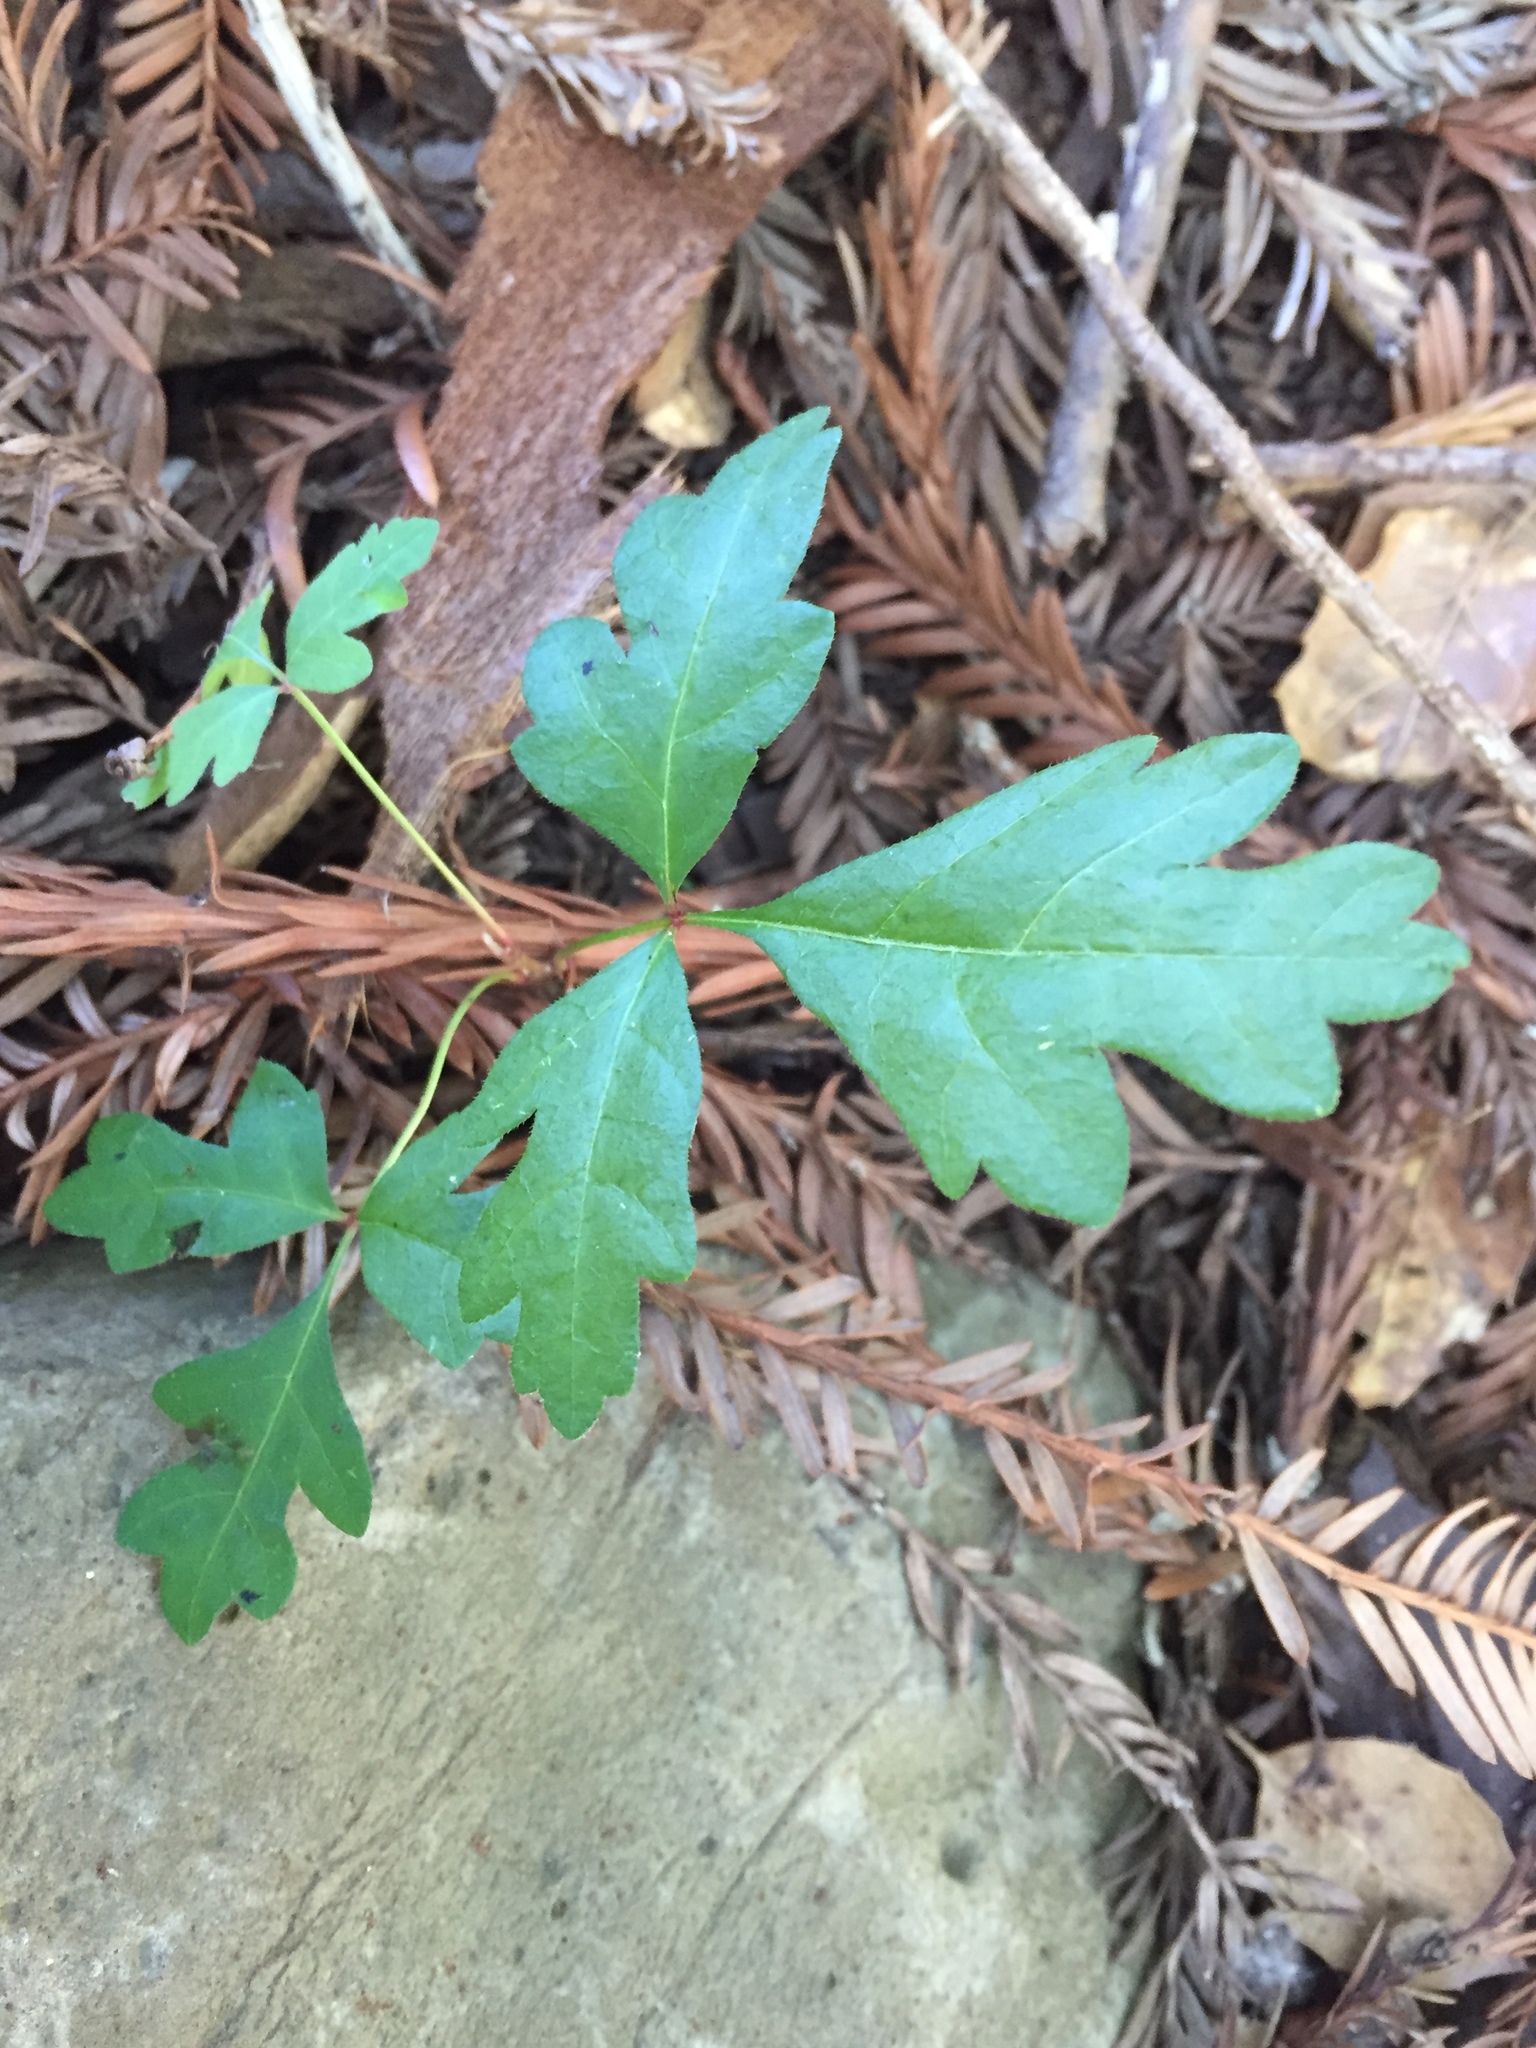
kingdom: Plantae
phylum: Tracheophyta
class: Magnoliopsida
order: Sapindales
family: Anacardiaceae
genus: Toxicodendron
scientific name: Toxicodendron diversilobum
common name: Pacific poison-oak
